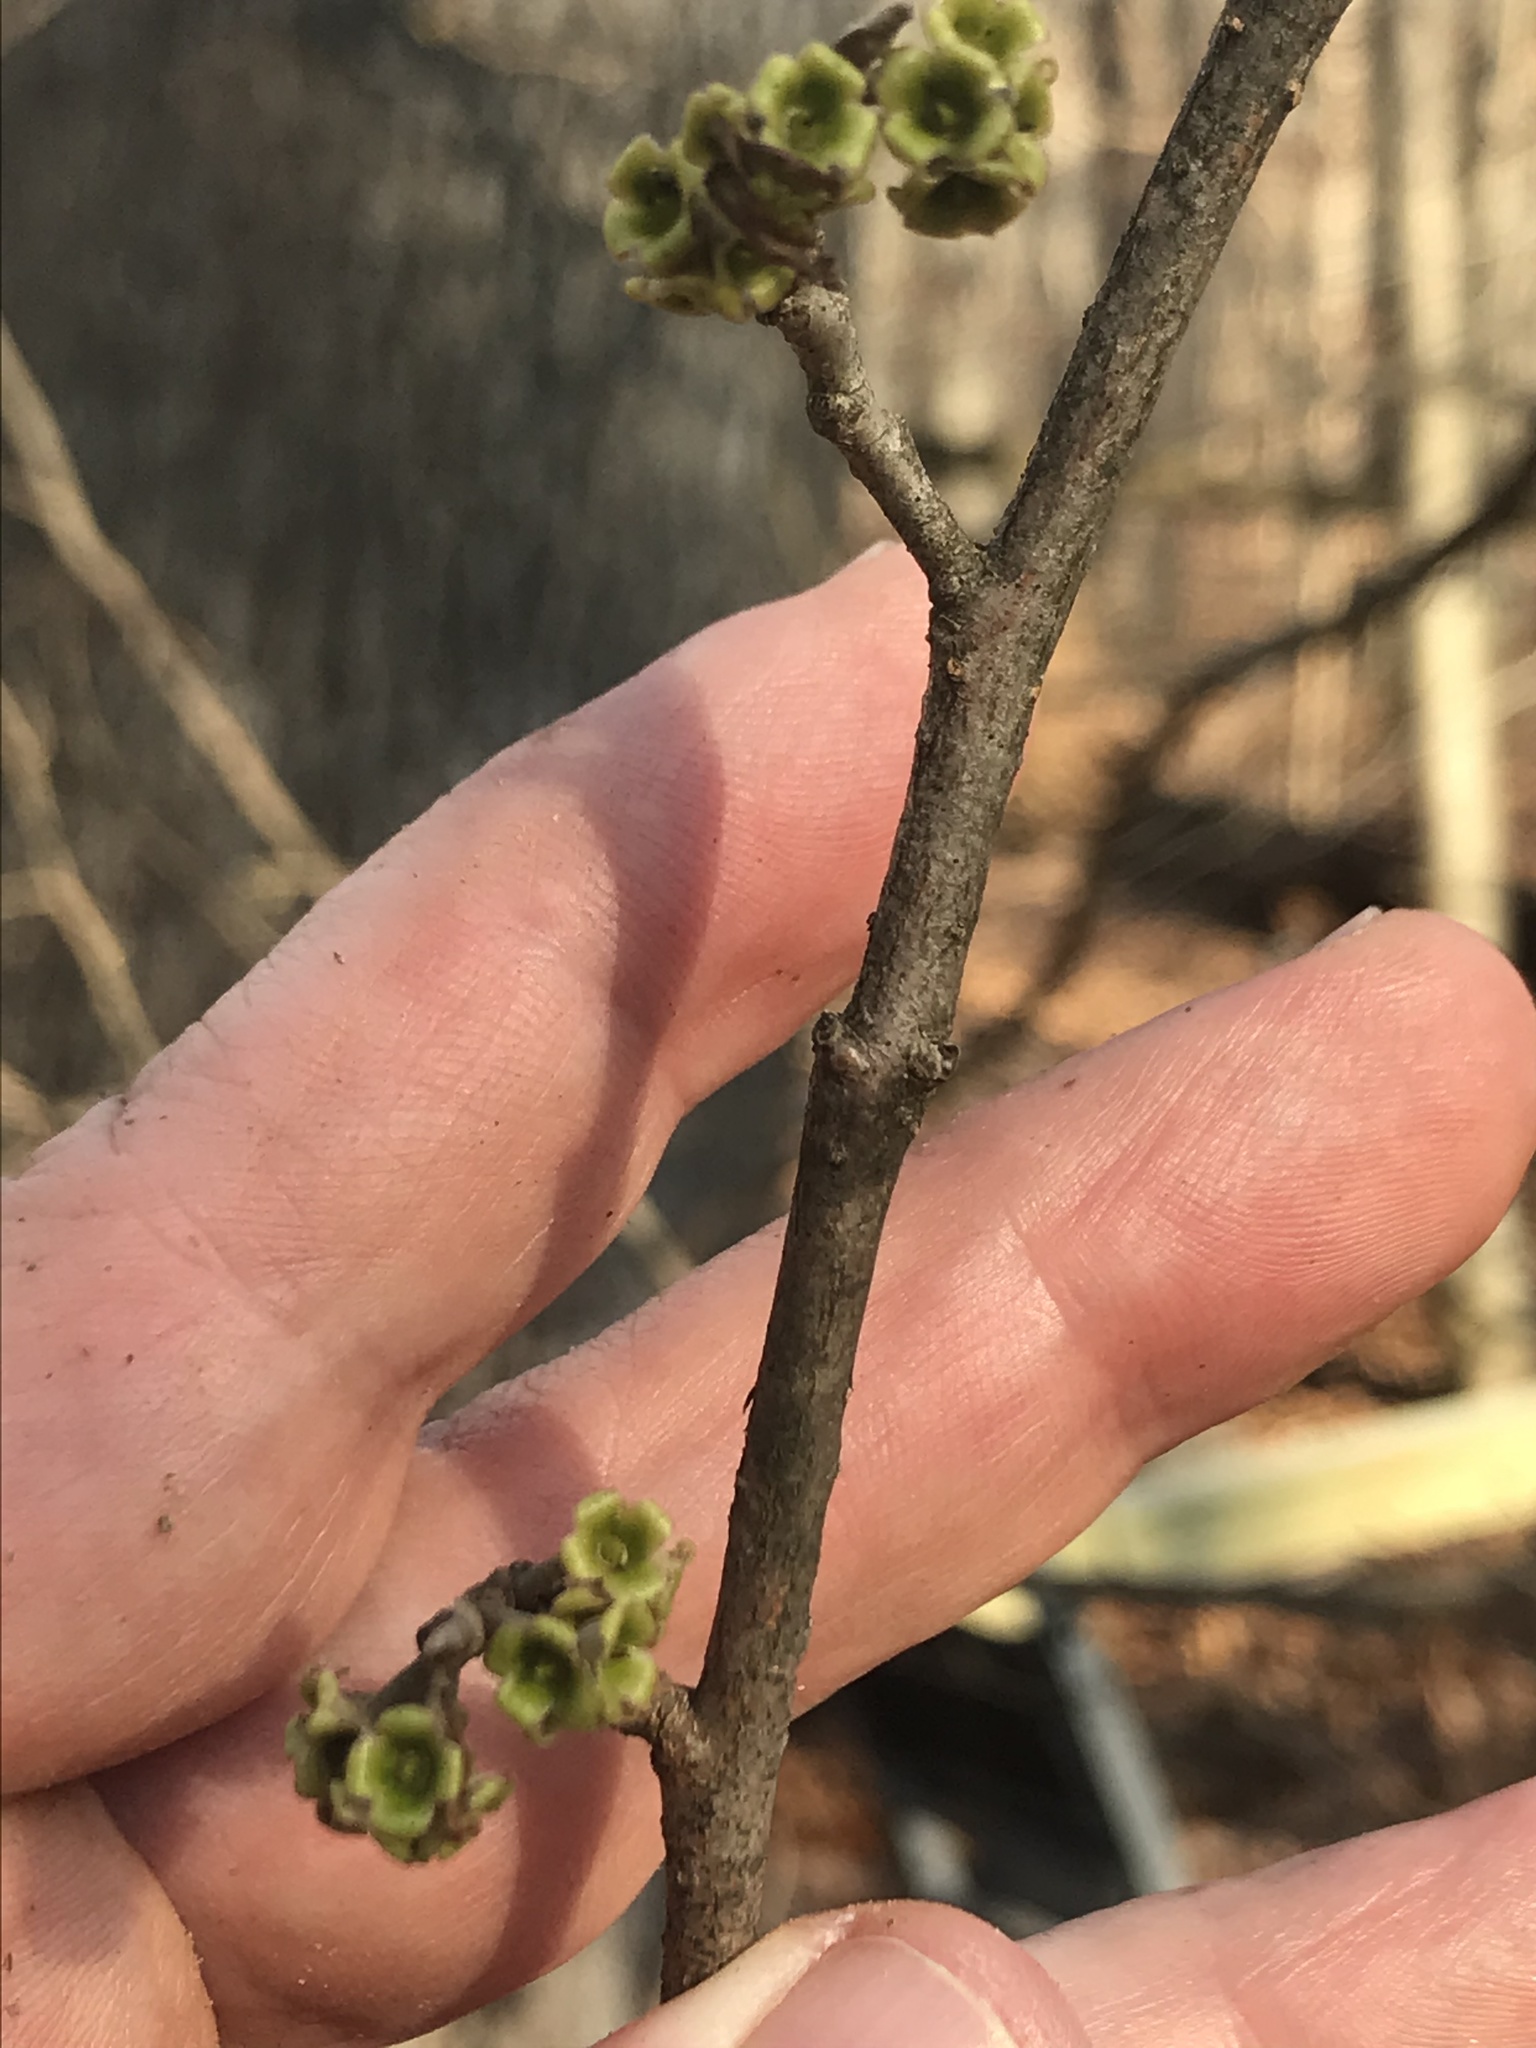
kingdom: Plantae
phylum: Tracheophyta
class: Magnoliopsida
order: Saxifragales
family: Hamamelidaceae
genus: Hamamelis
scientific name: Hamamelis virginiana
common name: Witch-hazel
